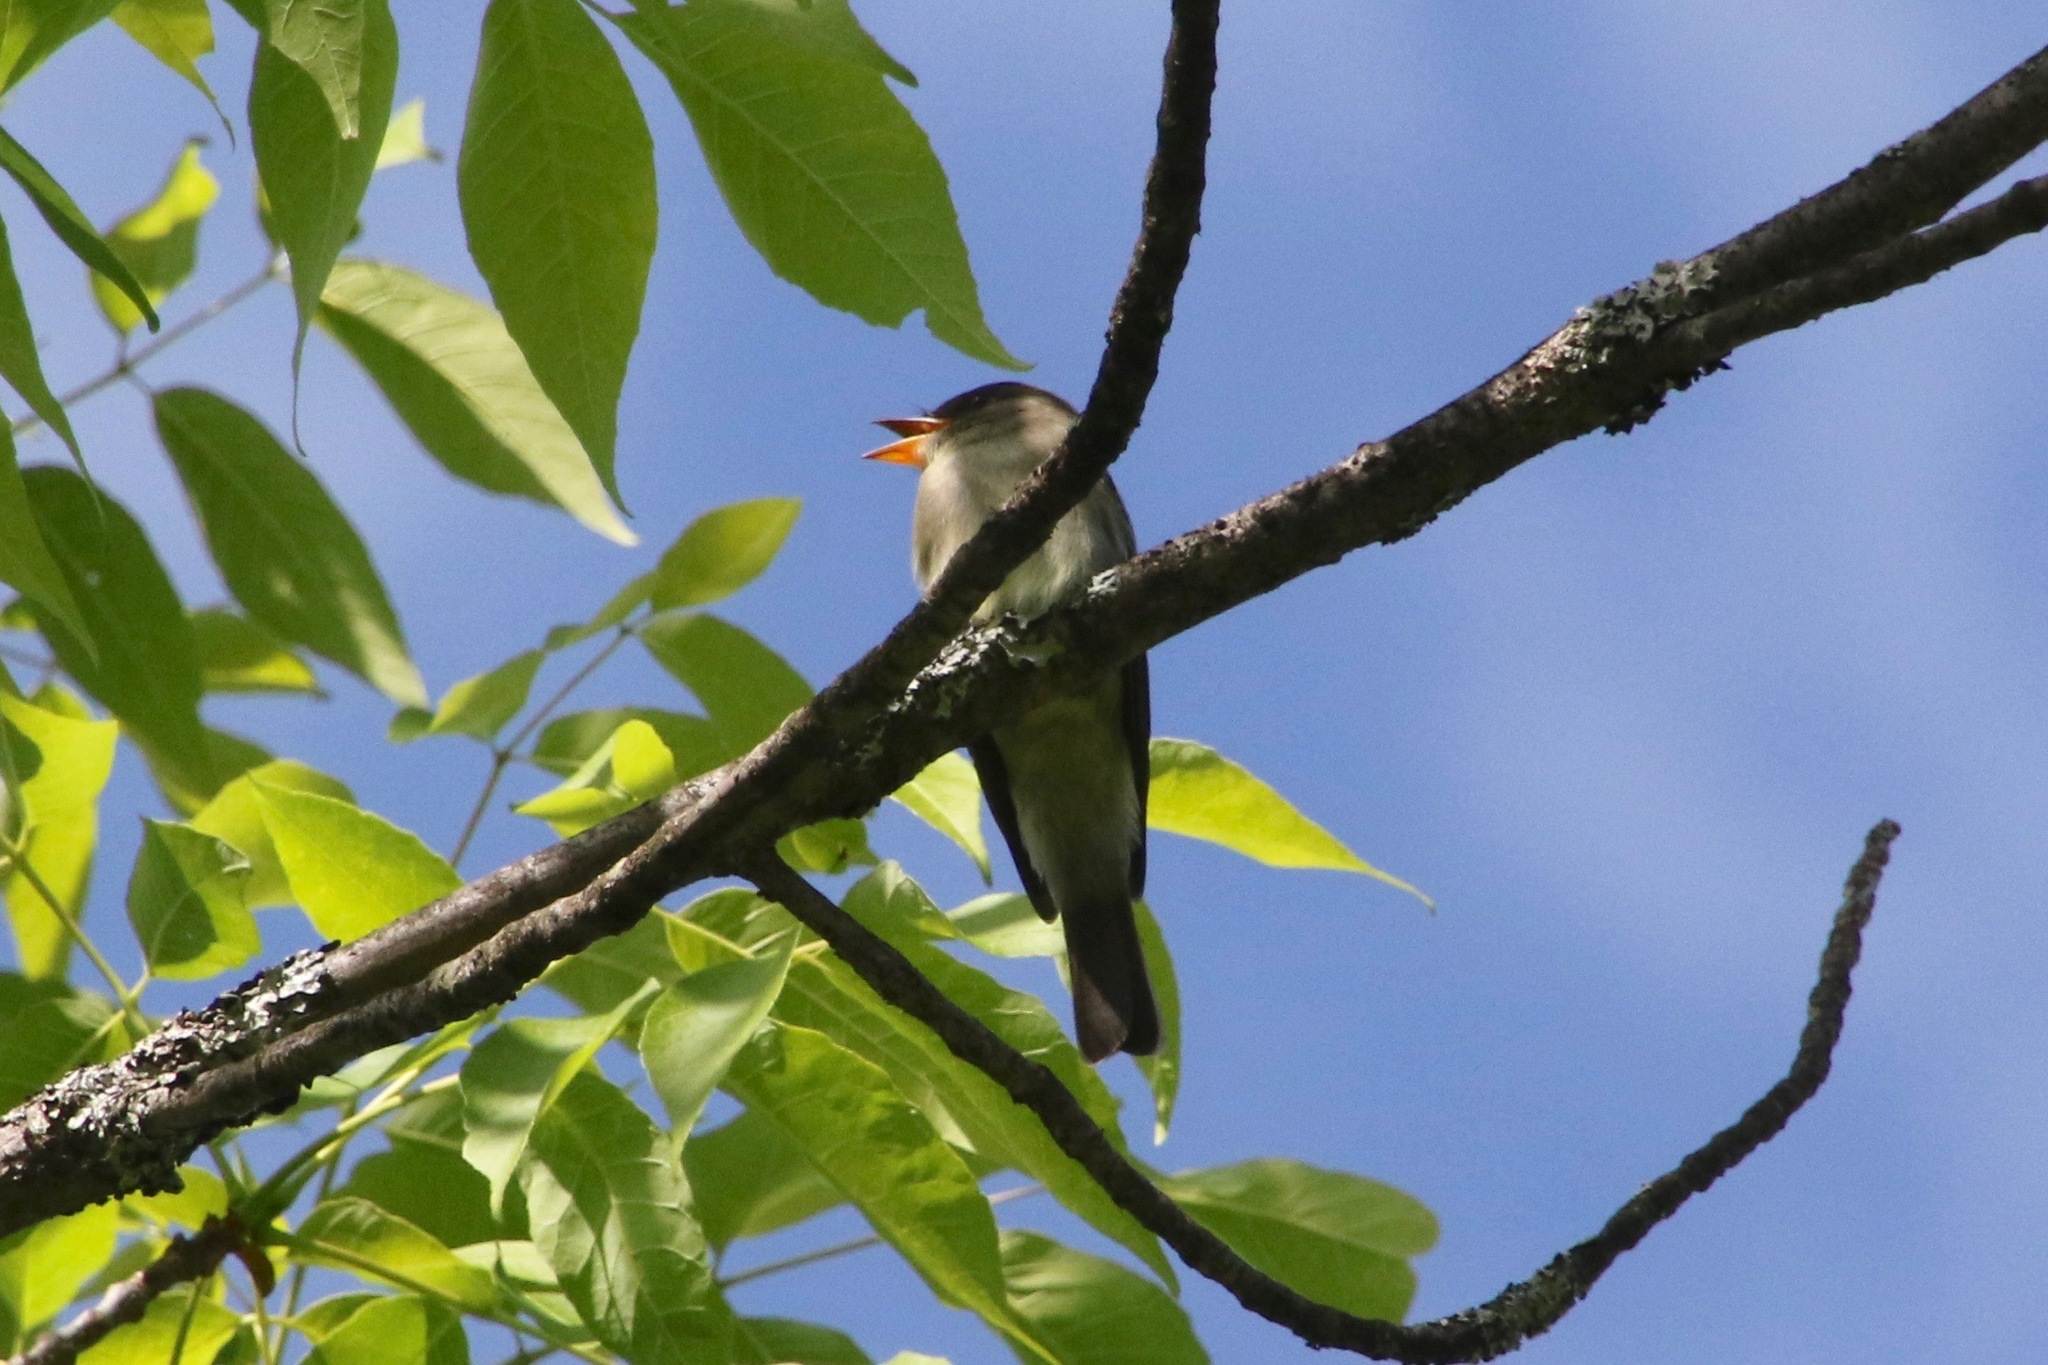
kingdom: Animalia
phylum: Chordata
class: Aves
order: Passeriformes
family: Tyrannidae
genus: Contopus
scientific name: Contopus virens
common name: Eastern wood-pewee
